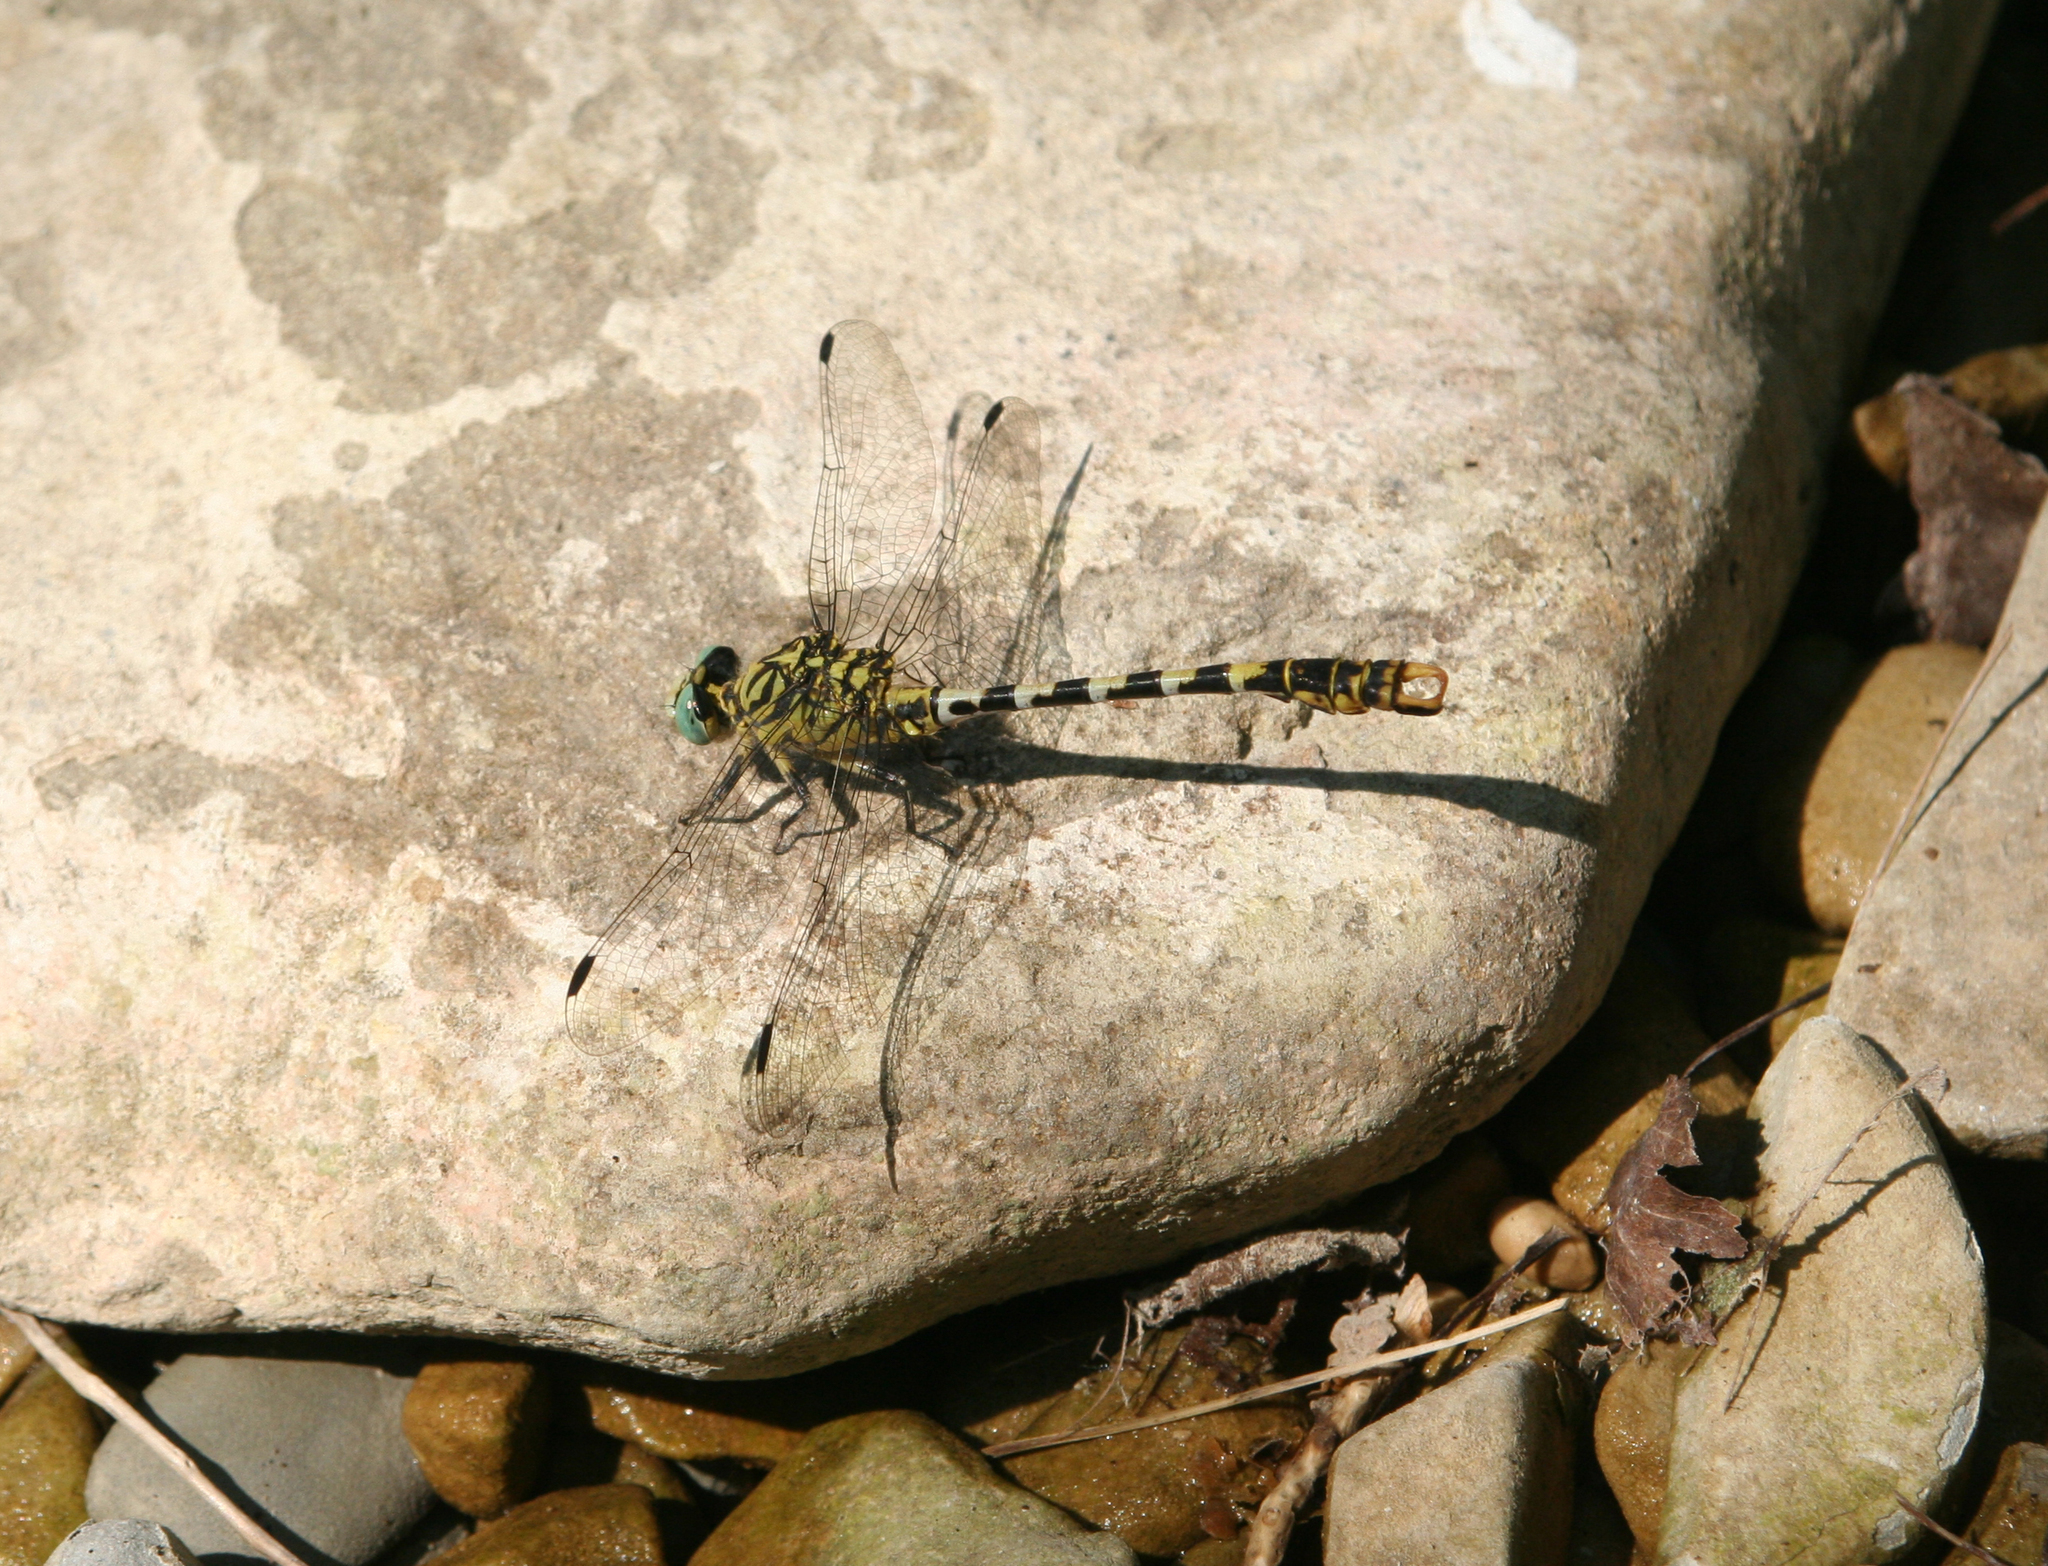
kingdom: Animalia
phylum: Arthropoda
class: Insecta
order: Odonata
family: Gomphidae
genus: Onychogomphus
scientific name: Onychogomphus forcipatus
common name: Small pincertail
